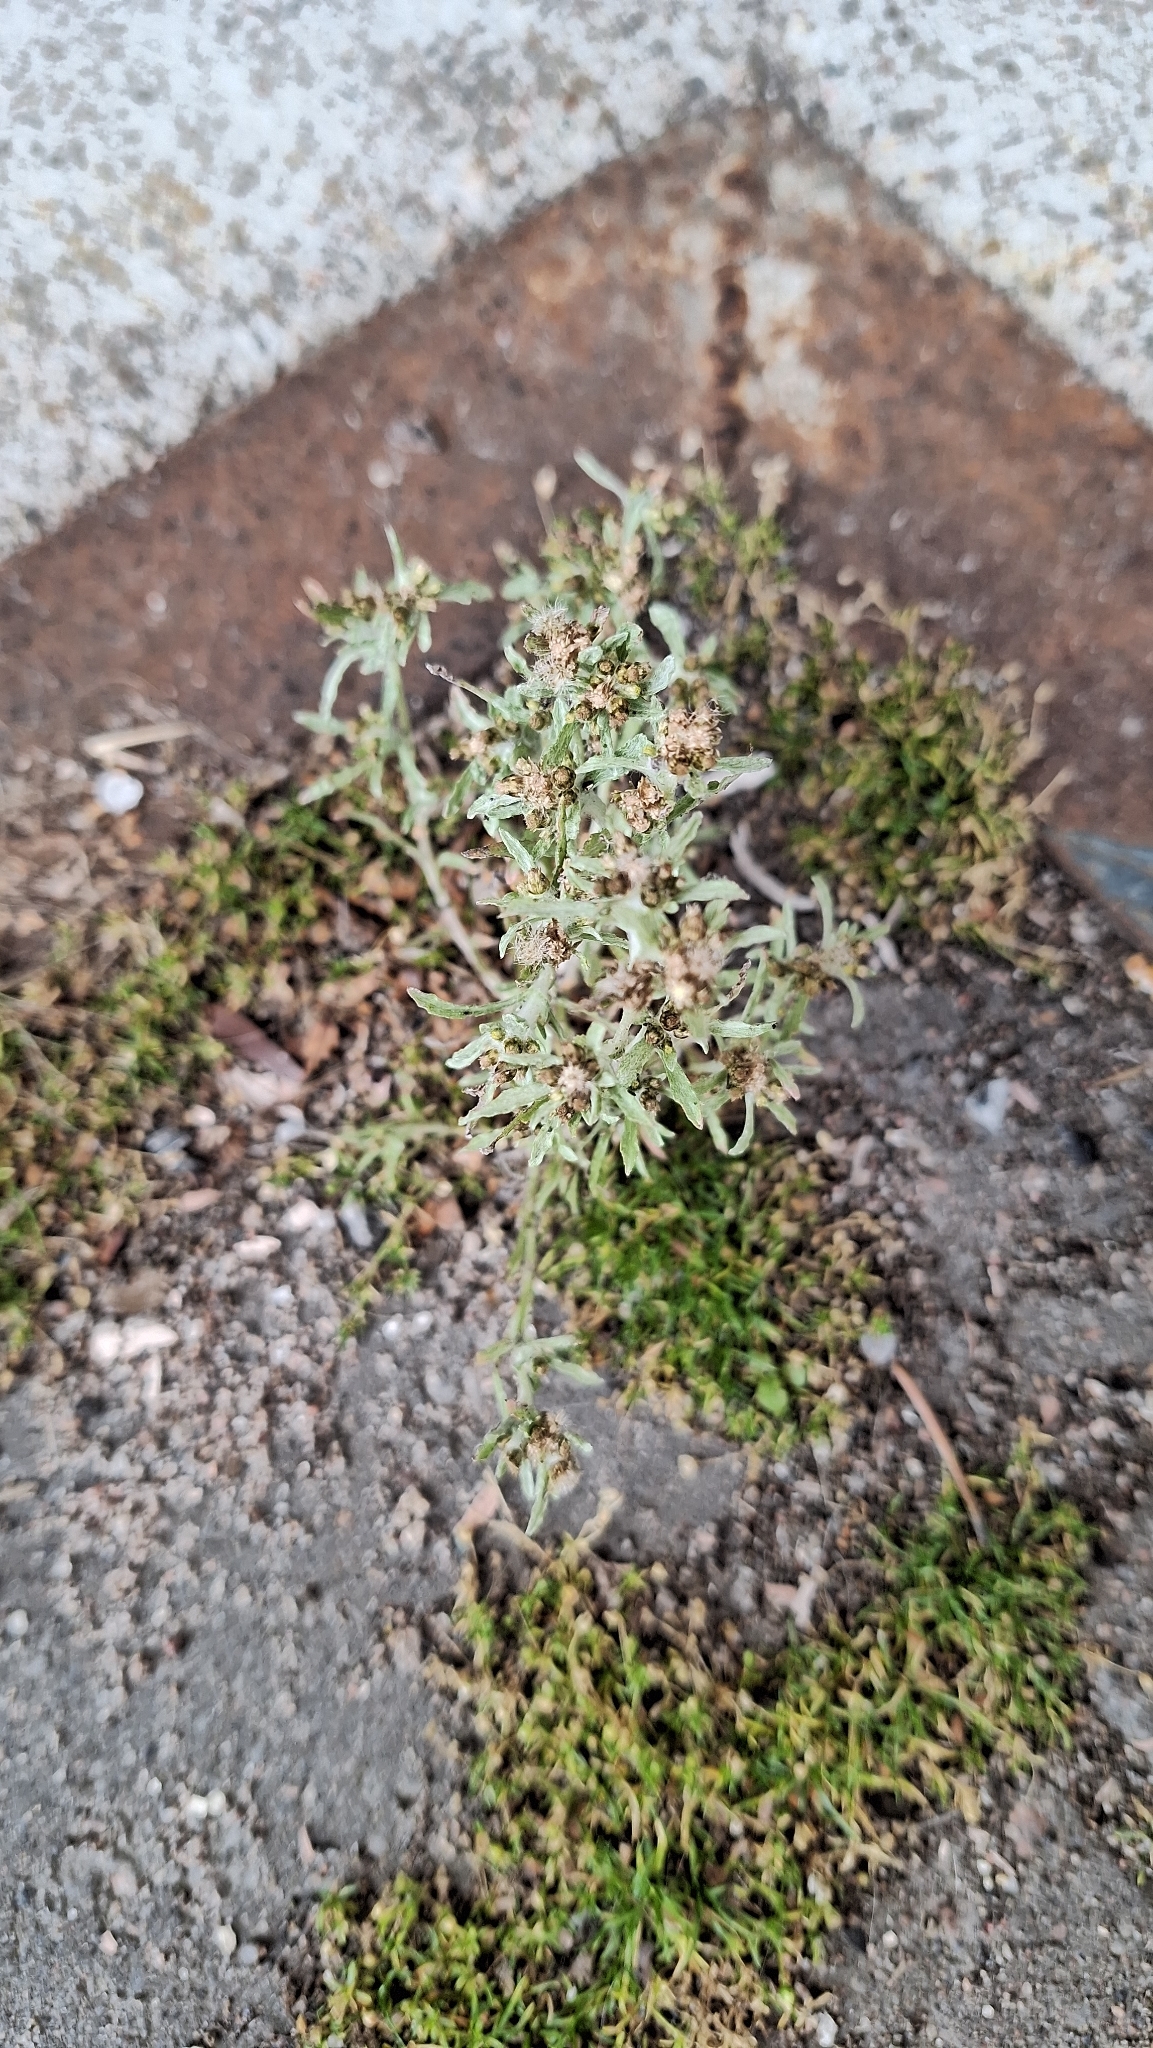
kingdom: Plantae
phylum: Tracheophyta
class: Magnoliopsida
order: Asterales
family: Asteraceae
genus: Gnaphalium
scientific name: Gnaphalium uliginosum
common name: Marsh cudweed
